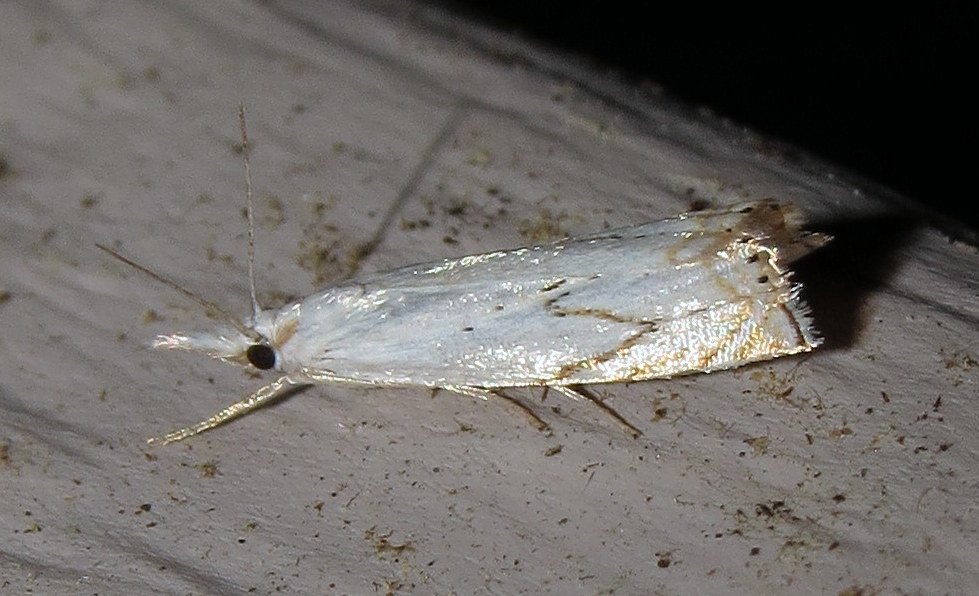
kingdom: Animalia
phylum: Arthropoda
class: Insecta
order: Lepidoptera
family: Crambidae
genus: Crambus
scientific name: Crambus albellus
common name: Small white grass-veneer
